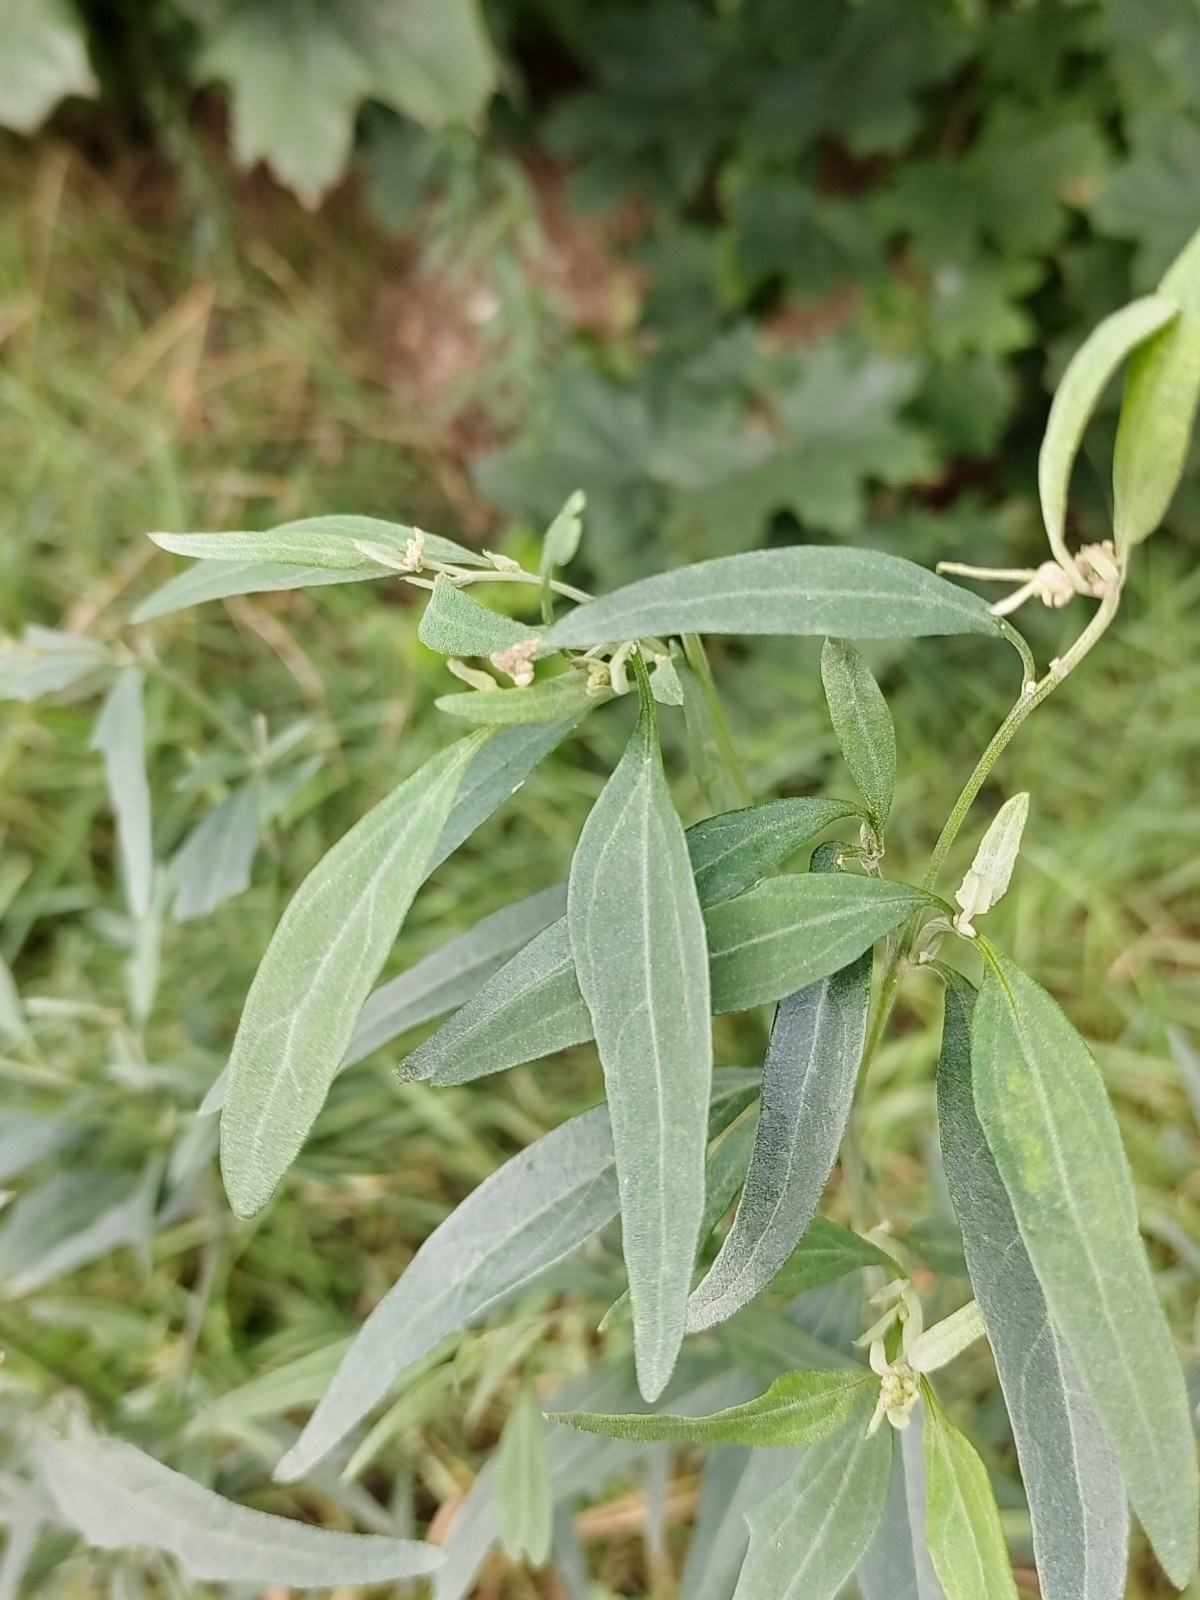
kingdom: Plantae
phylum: Tracheophyta
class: Magnoliopsida
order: Caryophyllales
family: Amaranthaceae
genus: Atriplex
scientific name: Atriplex oblongifolia
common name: Oblongleaf orache
